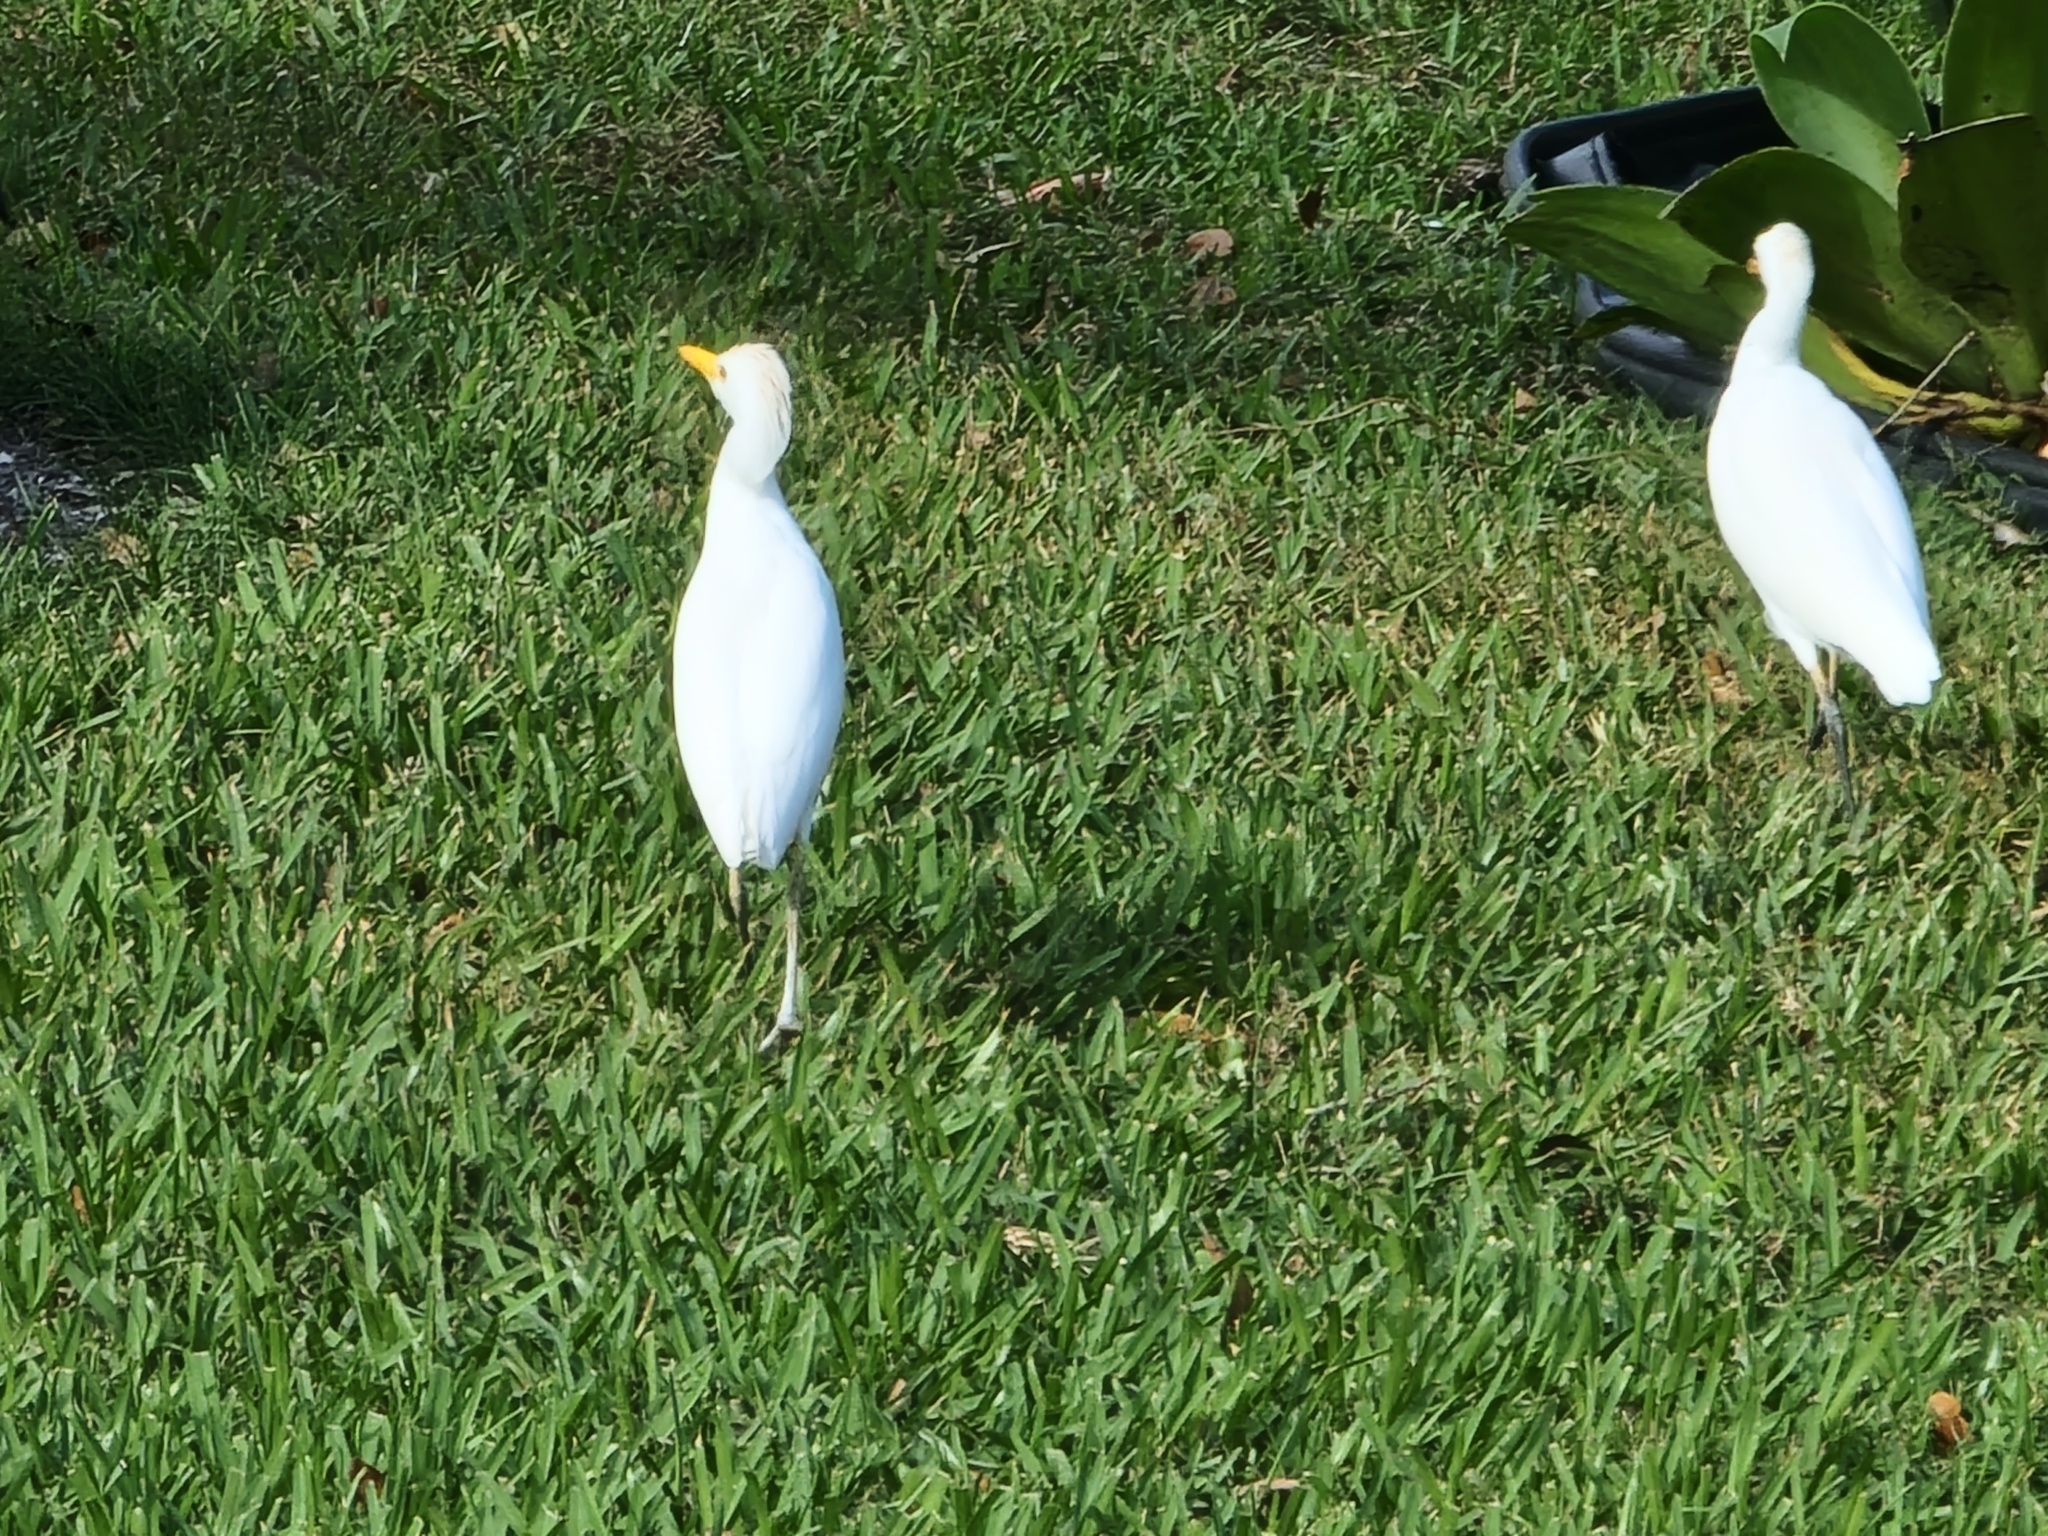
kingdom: Animalia
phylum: Chordata
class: Aves
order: Pelecaniformes
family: Ardeidae
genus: Bubulcus
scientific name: Bubulcus ibis
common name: Cattle egret
